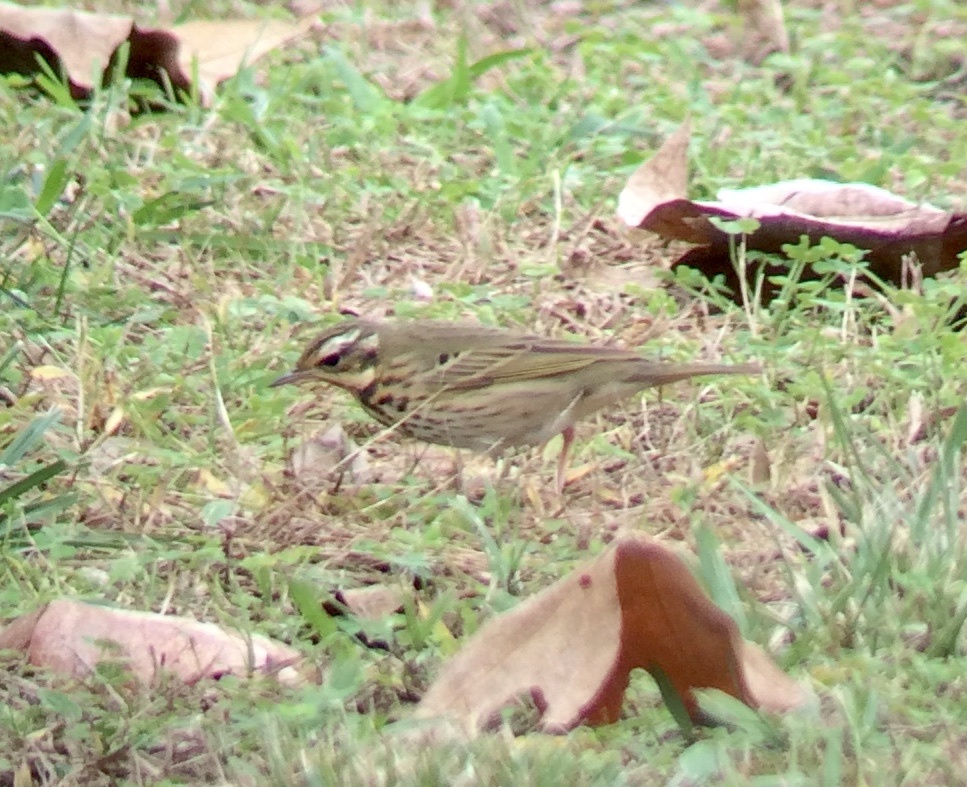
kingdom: Animalia
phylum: Chordata
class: Aves
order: Passeriformes
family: Motacillidae
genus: Anthus
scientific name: Anthus hodgsoni
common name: Olive-backed pipit
